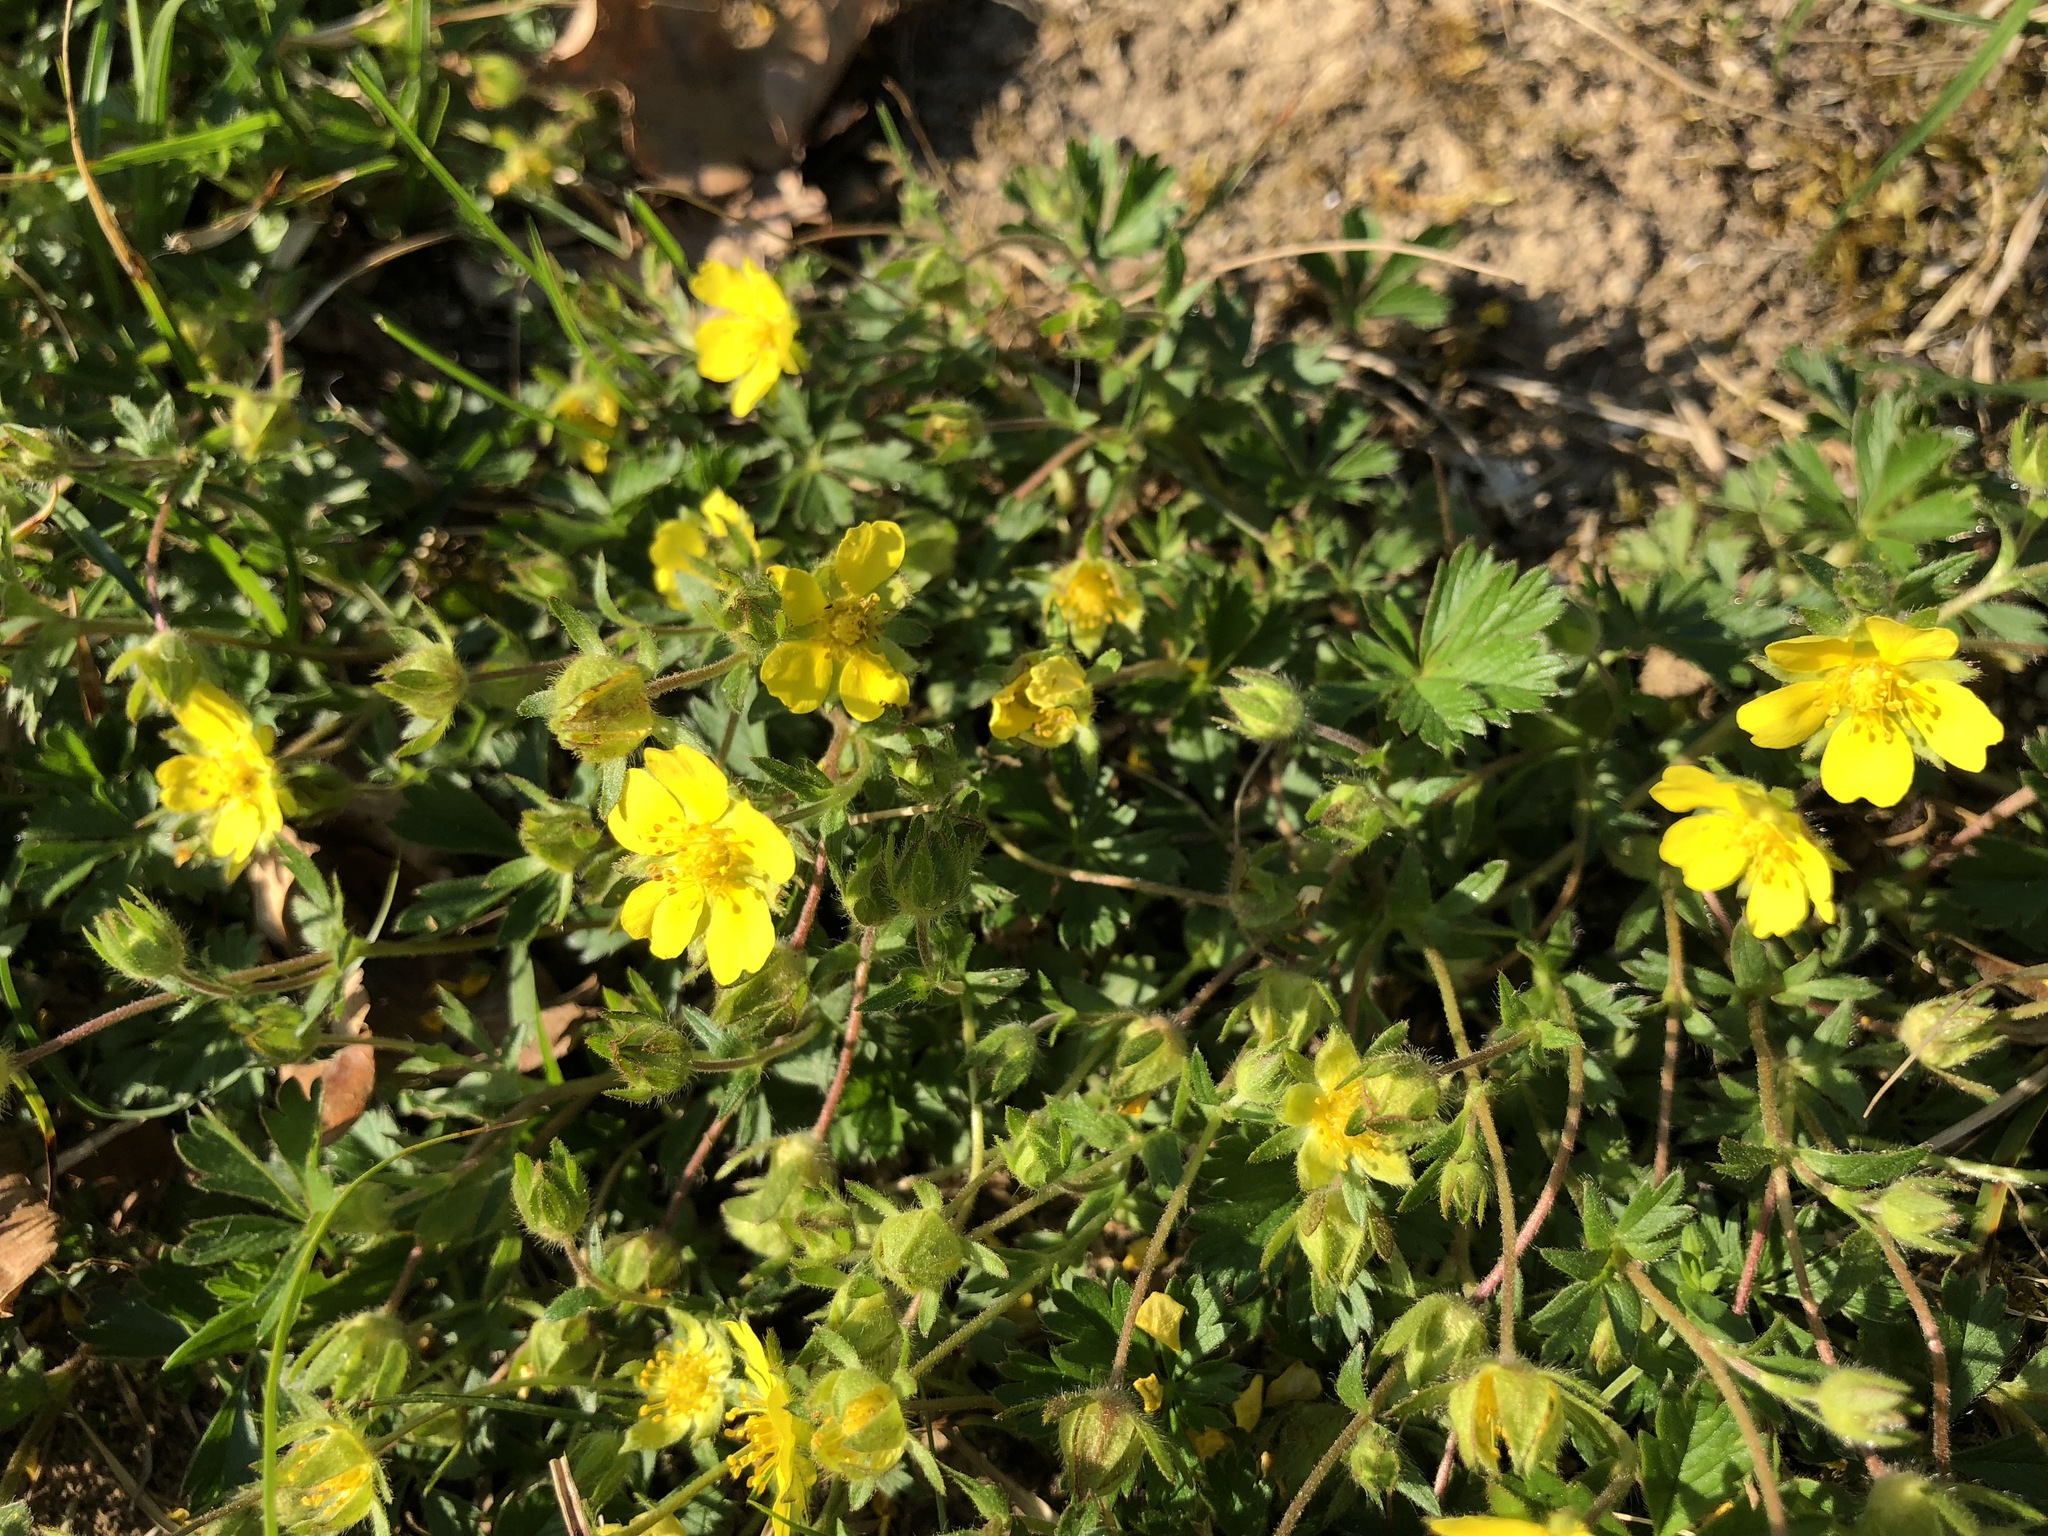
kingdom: Plantae
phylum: Tracheophyta
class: Magnoliopsida
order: Rosales
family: Rosaceae
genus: Potentilla
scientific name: Potentilla verna
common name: Spring cinquefoil
